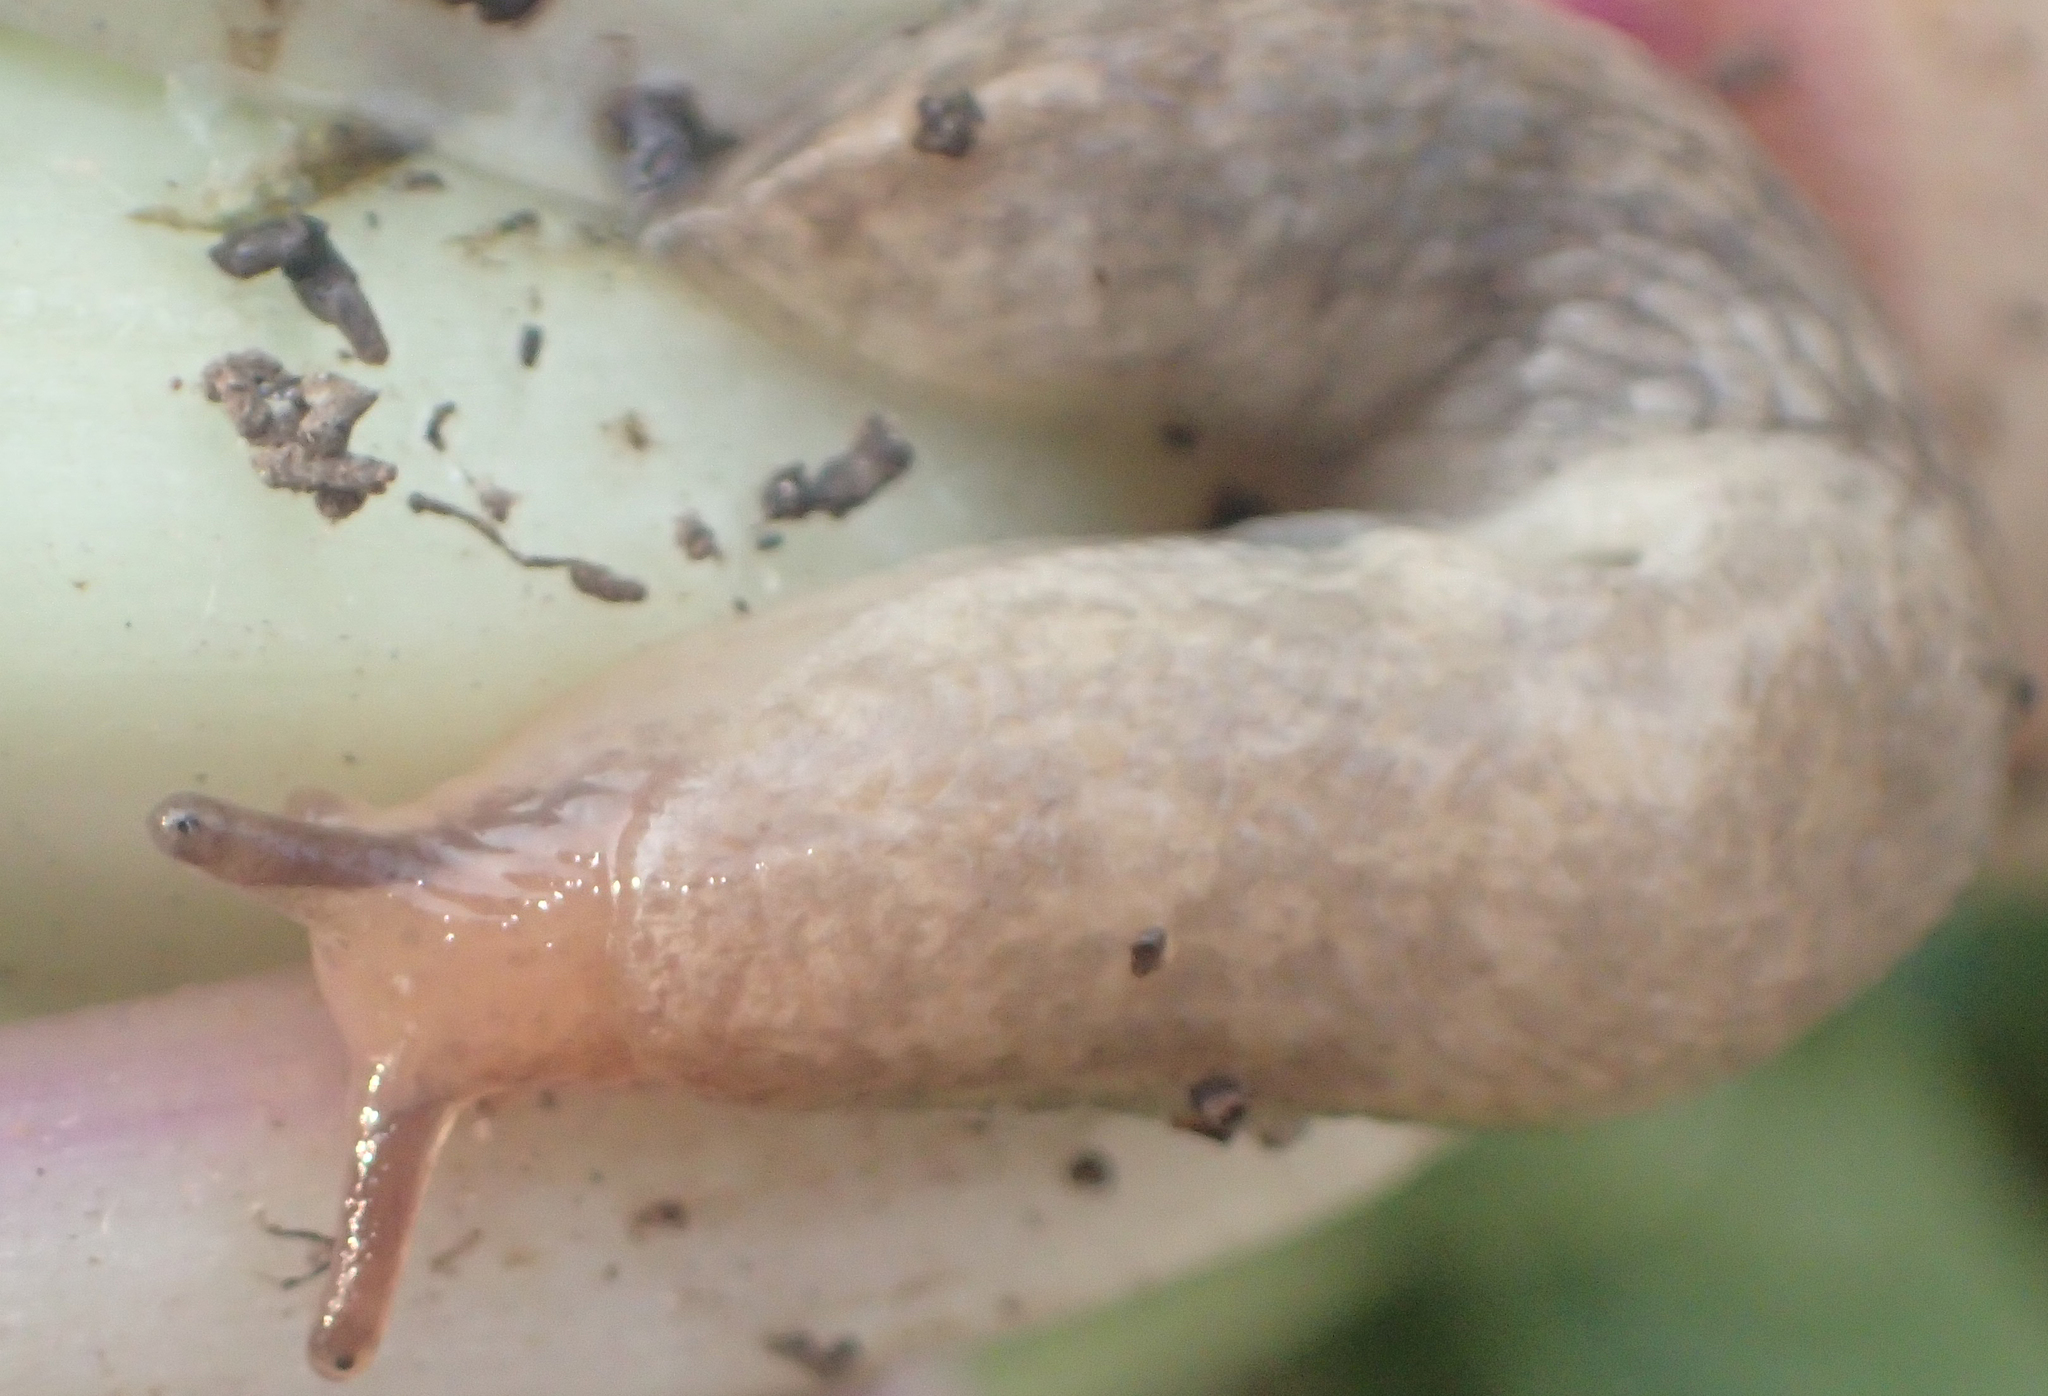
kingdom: Animalia
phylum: Mollusca
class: Gastropoda
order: Stylommatophora
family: Agriolimacidae
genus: Deroceras
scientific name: Deroceras reticulatum
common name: Gray field slug
